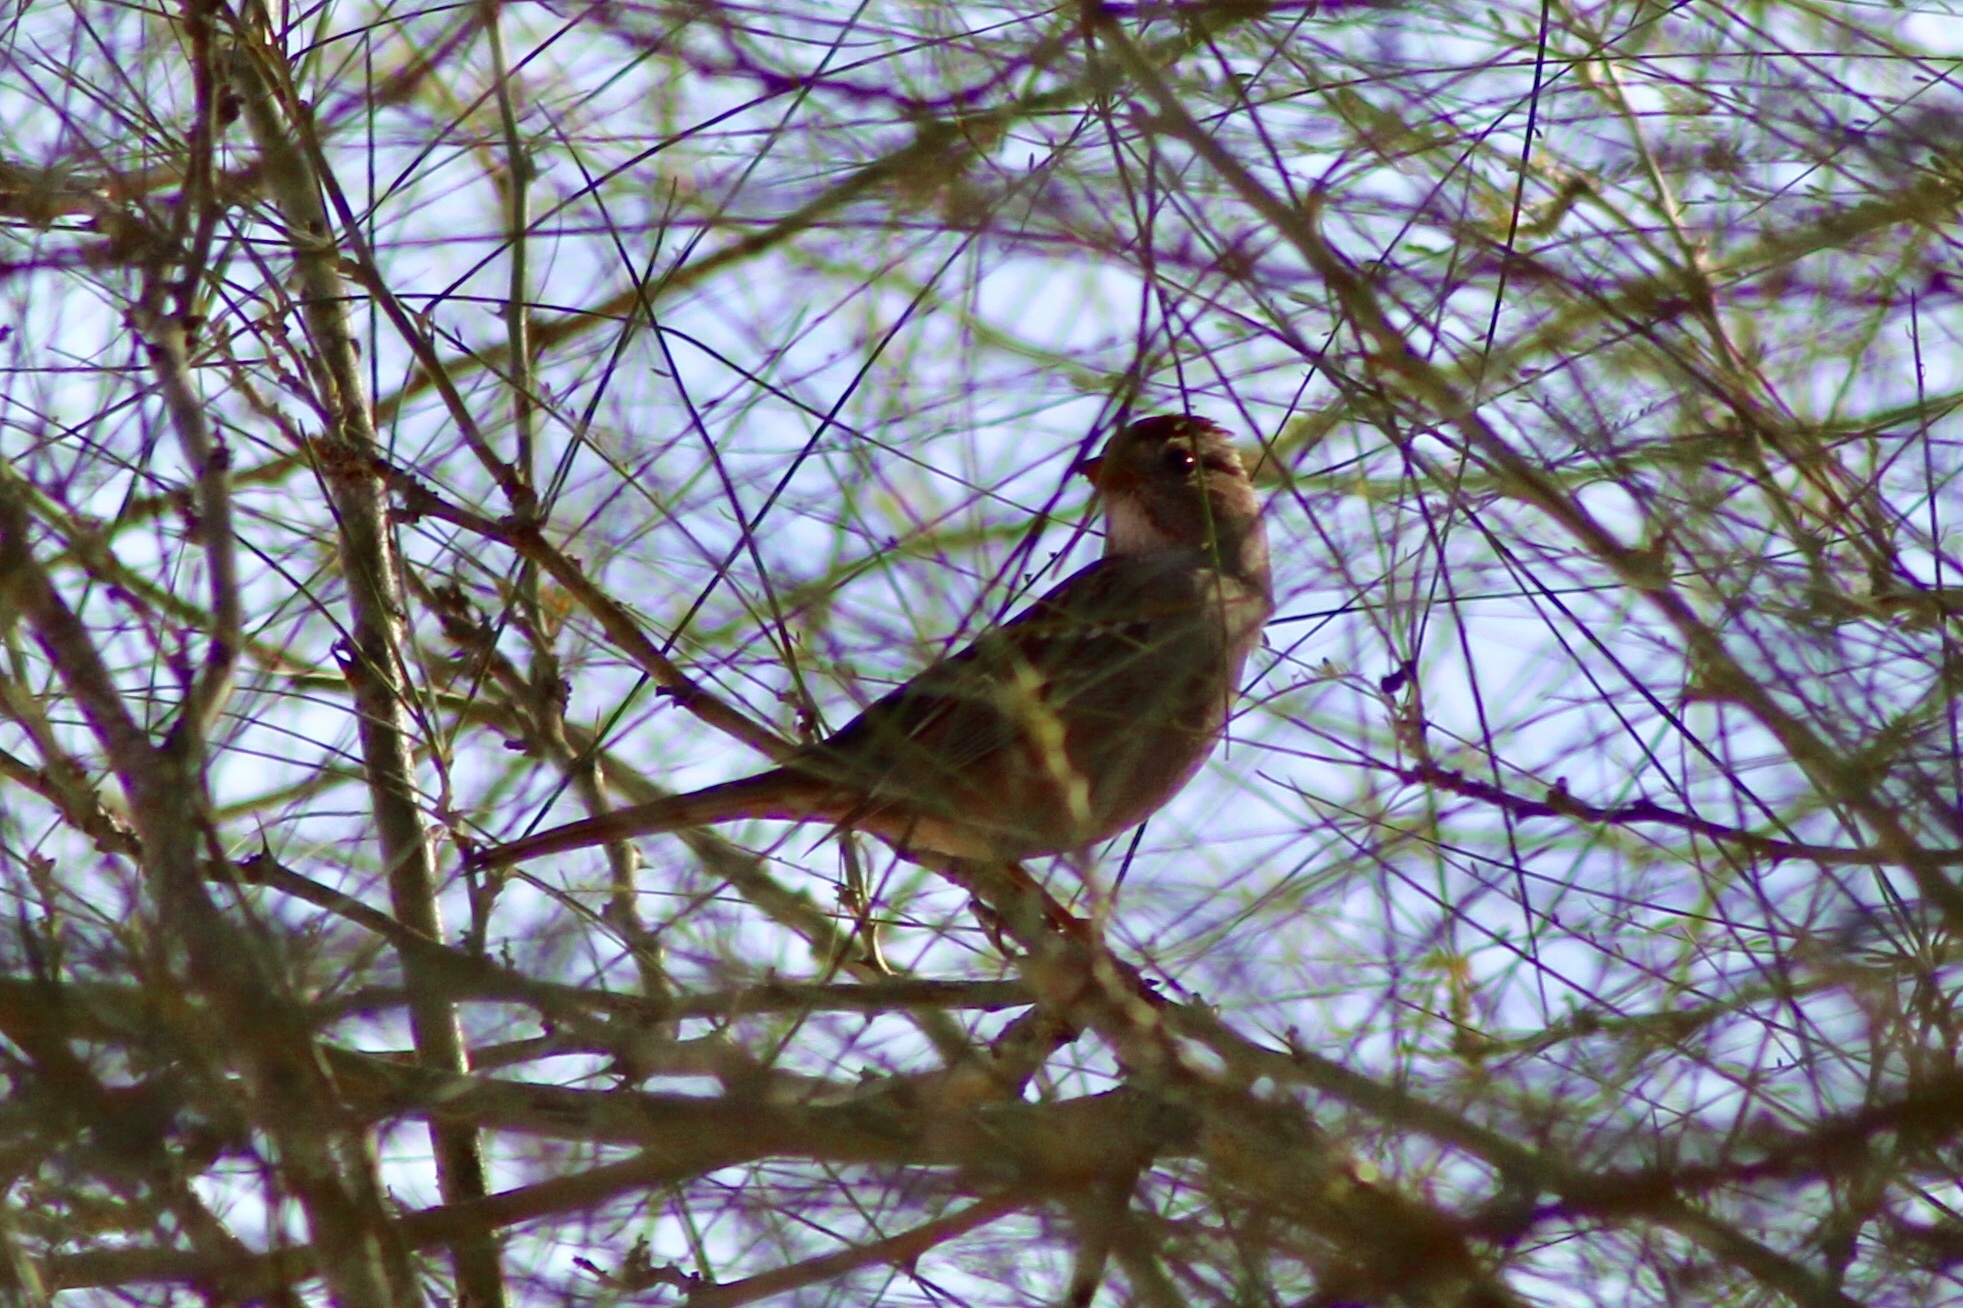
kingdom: Animalia
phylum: Chordata
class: Aves
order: Passeriformes
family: Passerellidae
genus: Zonotrichia
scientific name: Zonotrichia leucophrys
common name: White-crowned sparrow
